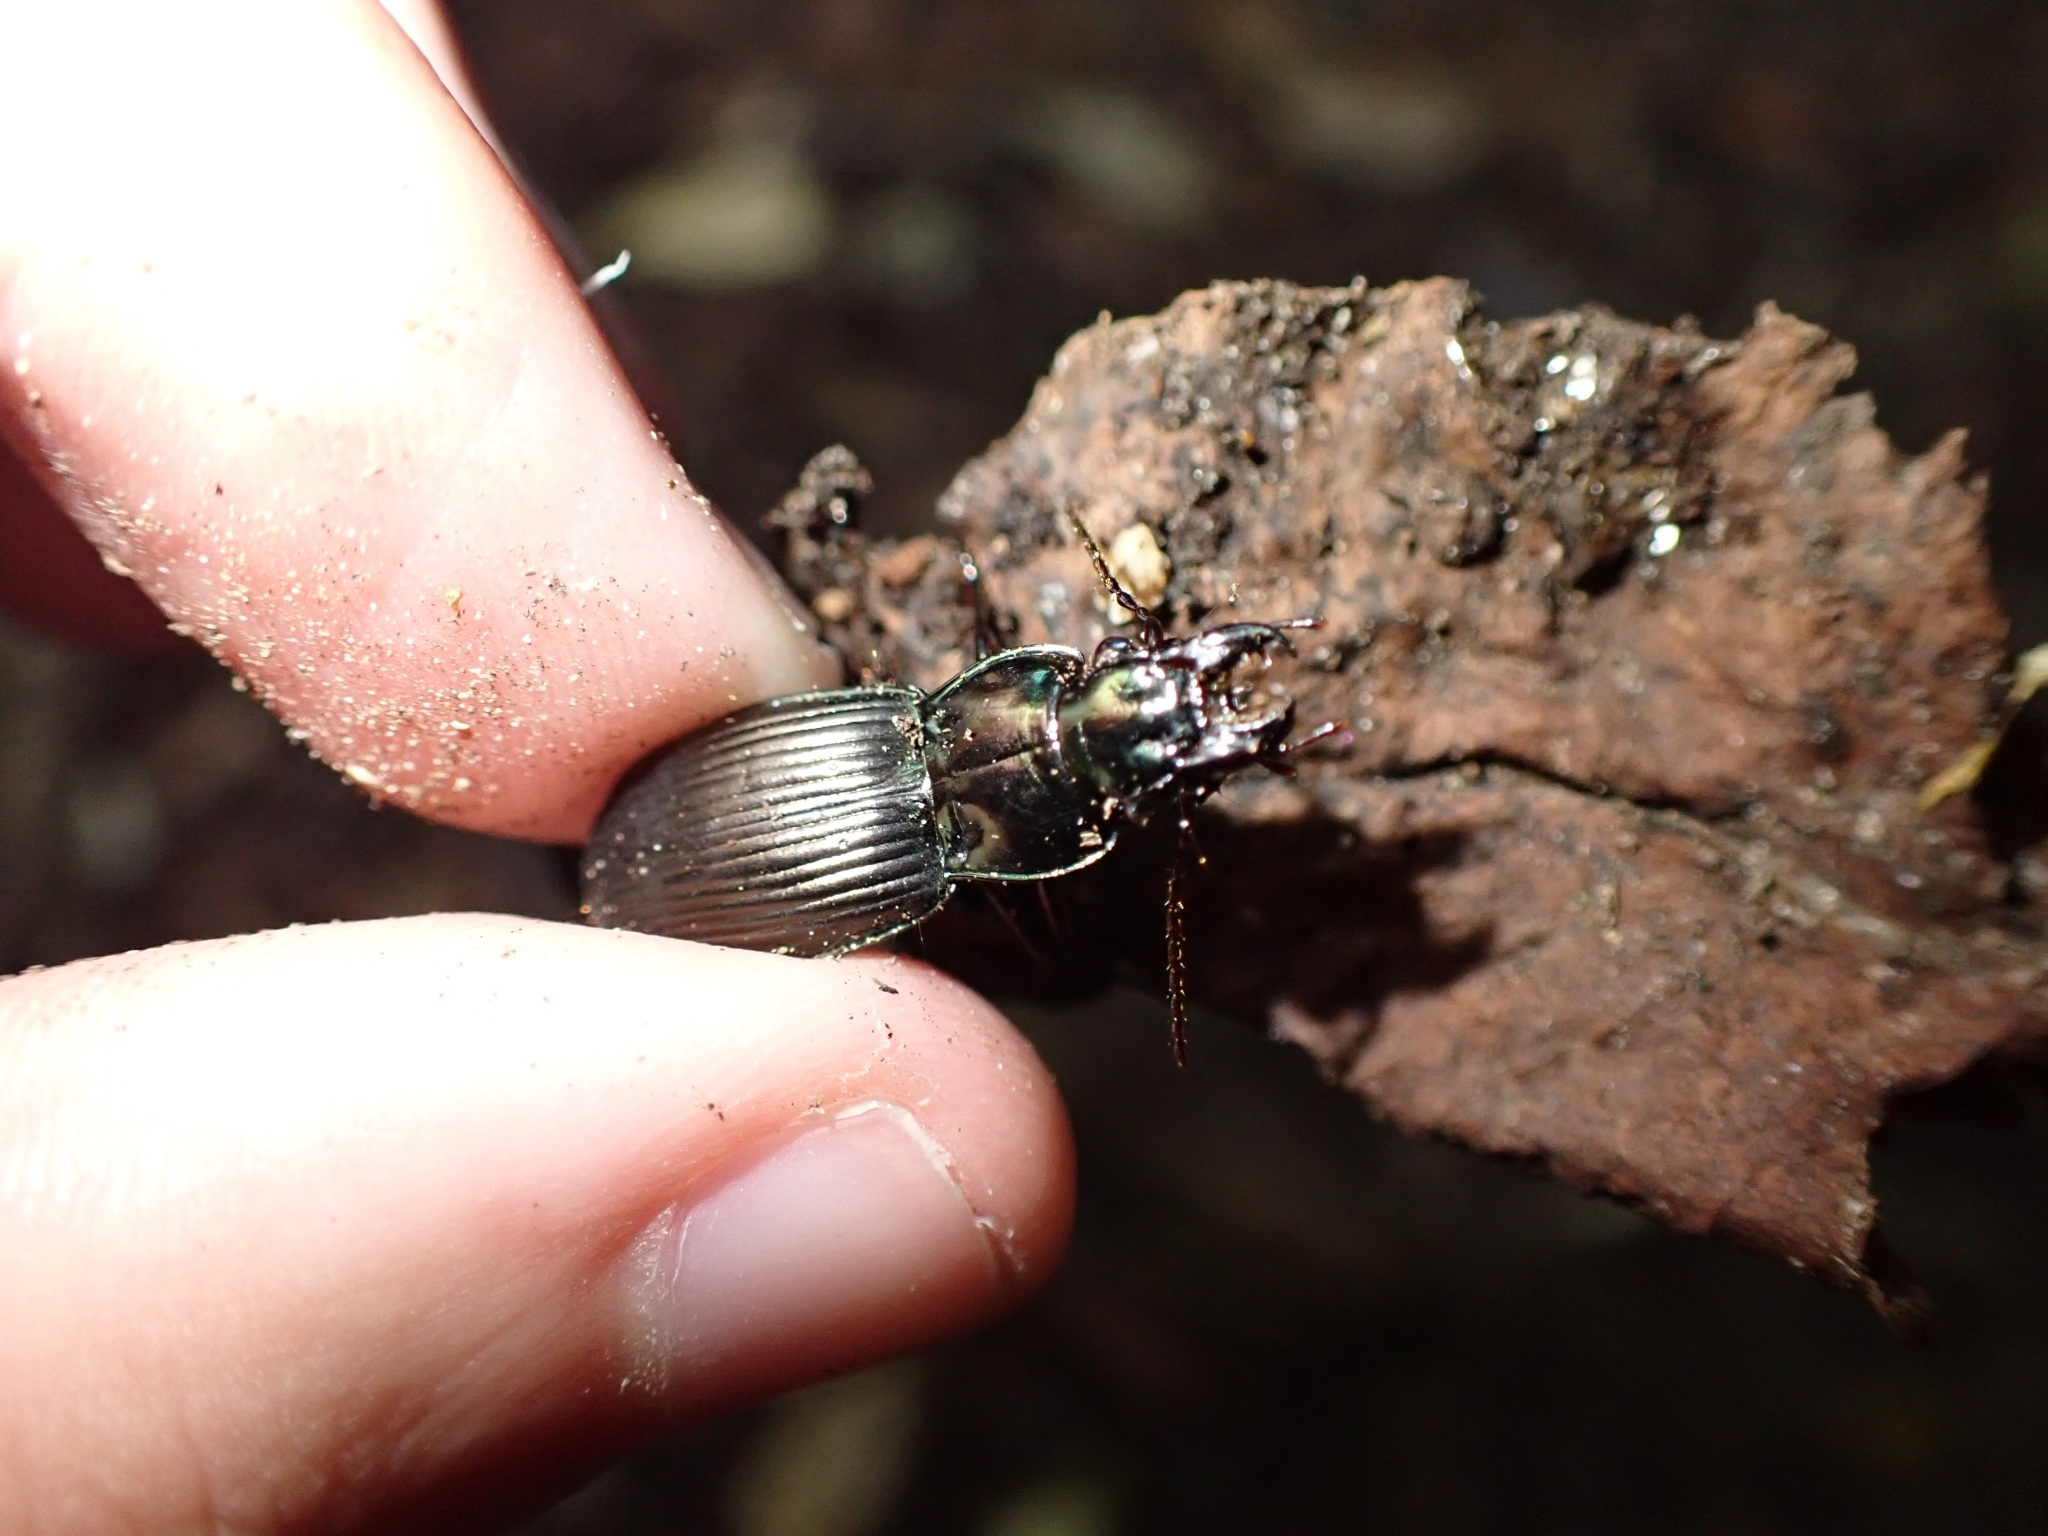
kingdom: Animalia
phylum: Arthropoda
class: Insecta
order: Coleoptera
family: Carabidae
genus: Megadromus
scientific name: Megadromus capito
